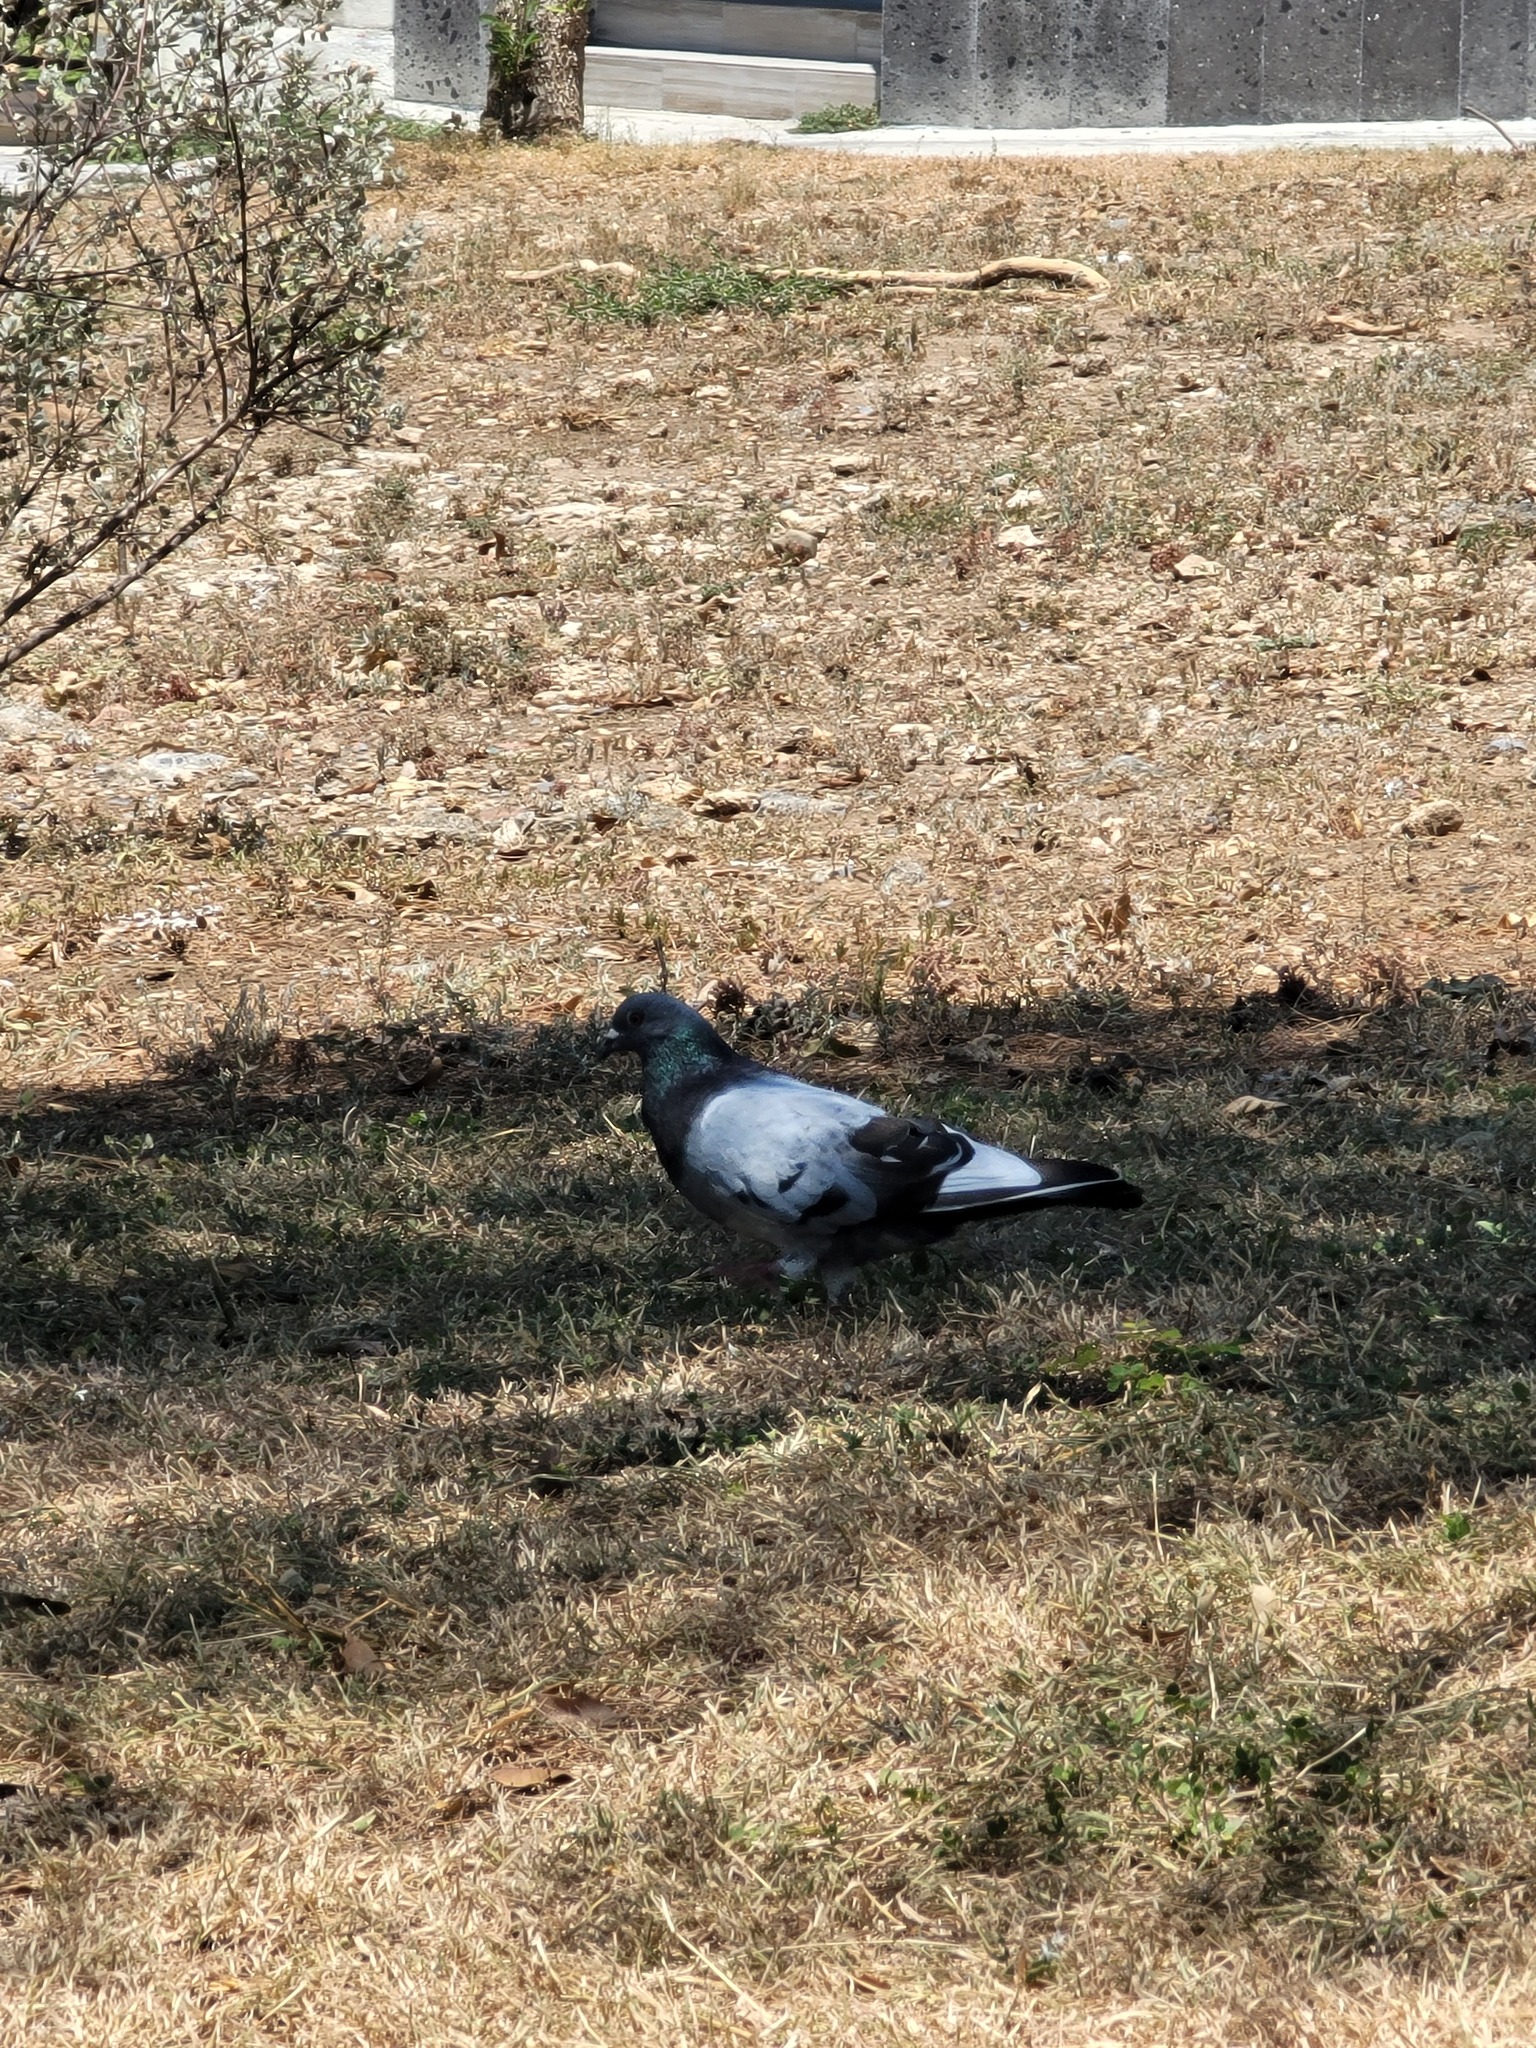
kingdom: Animalia
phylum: Chordata
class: Aves
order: Columbiformes
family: Columbidae
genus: Columba
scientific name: Columba livia
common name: Rock pigeon
